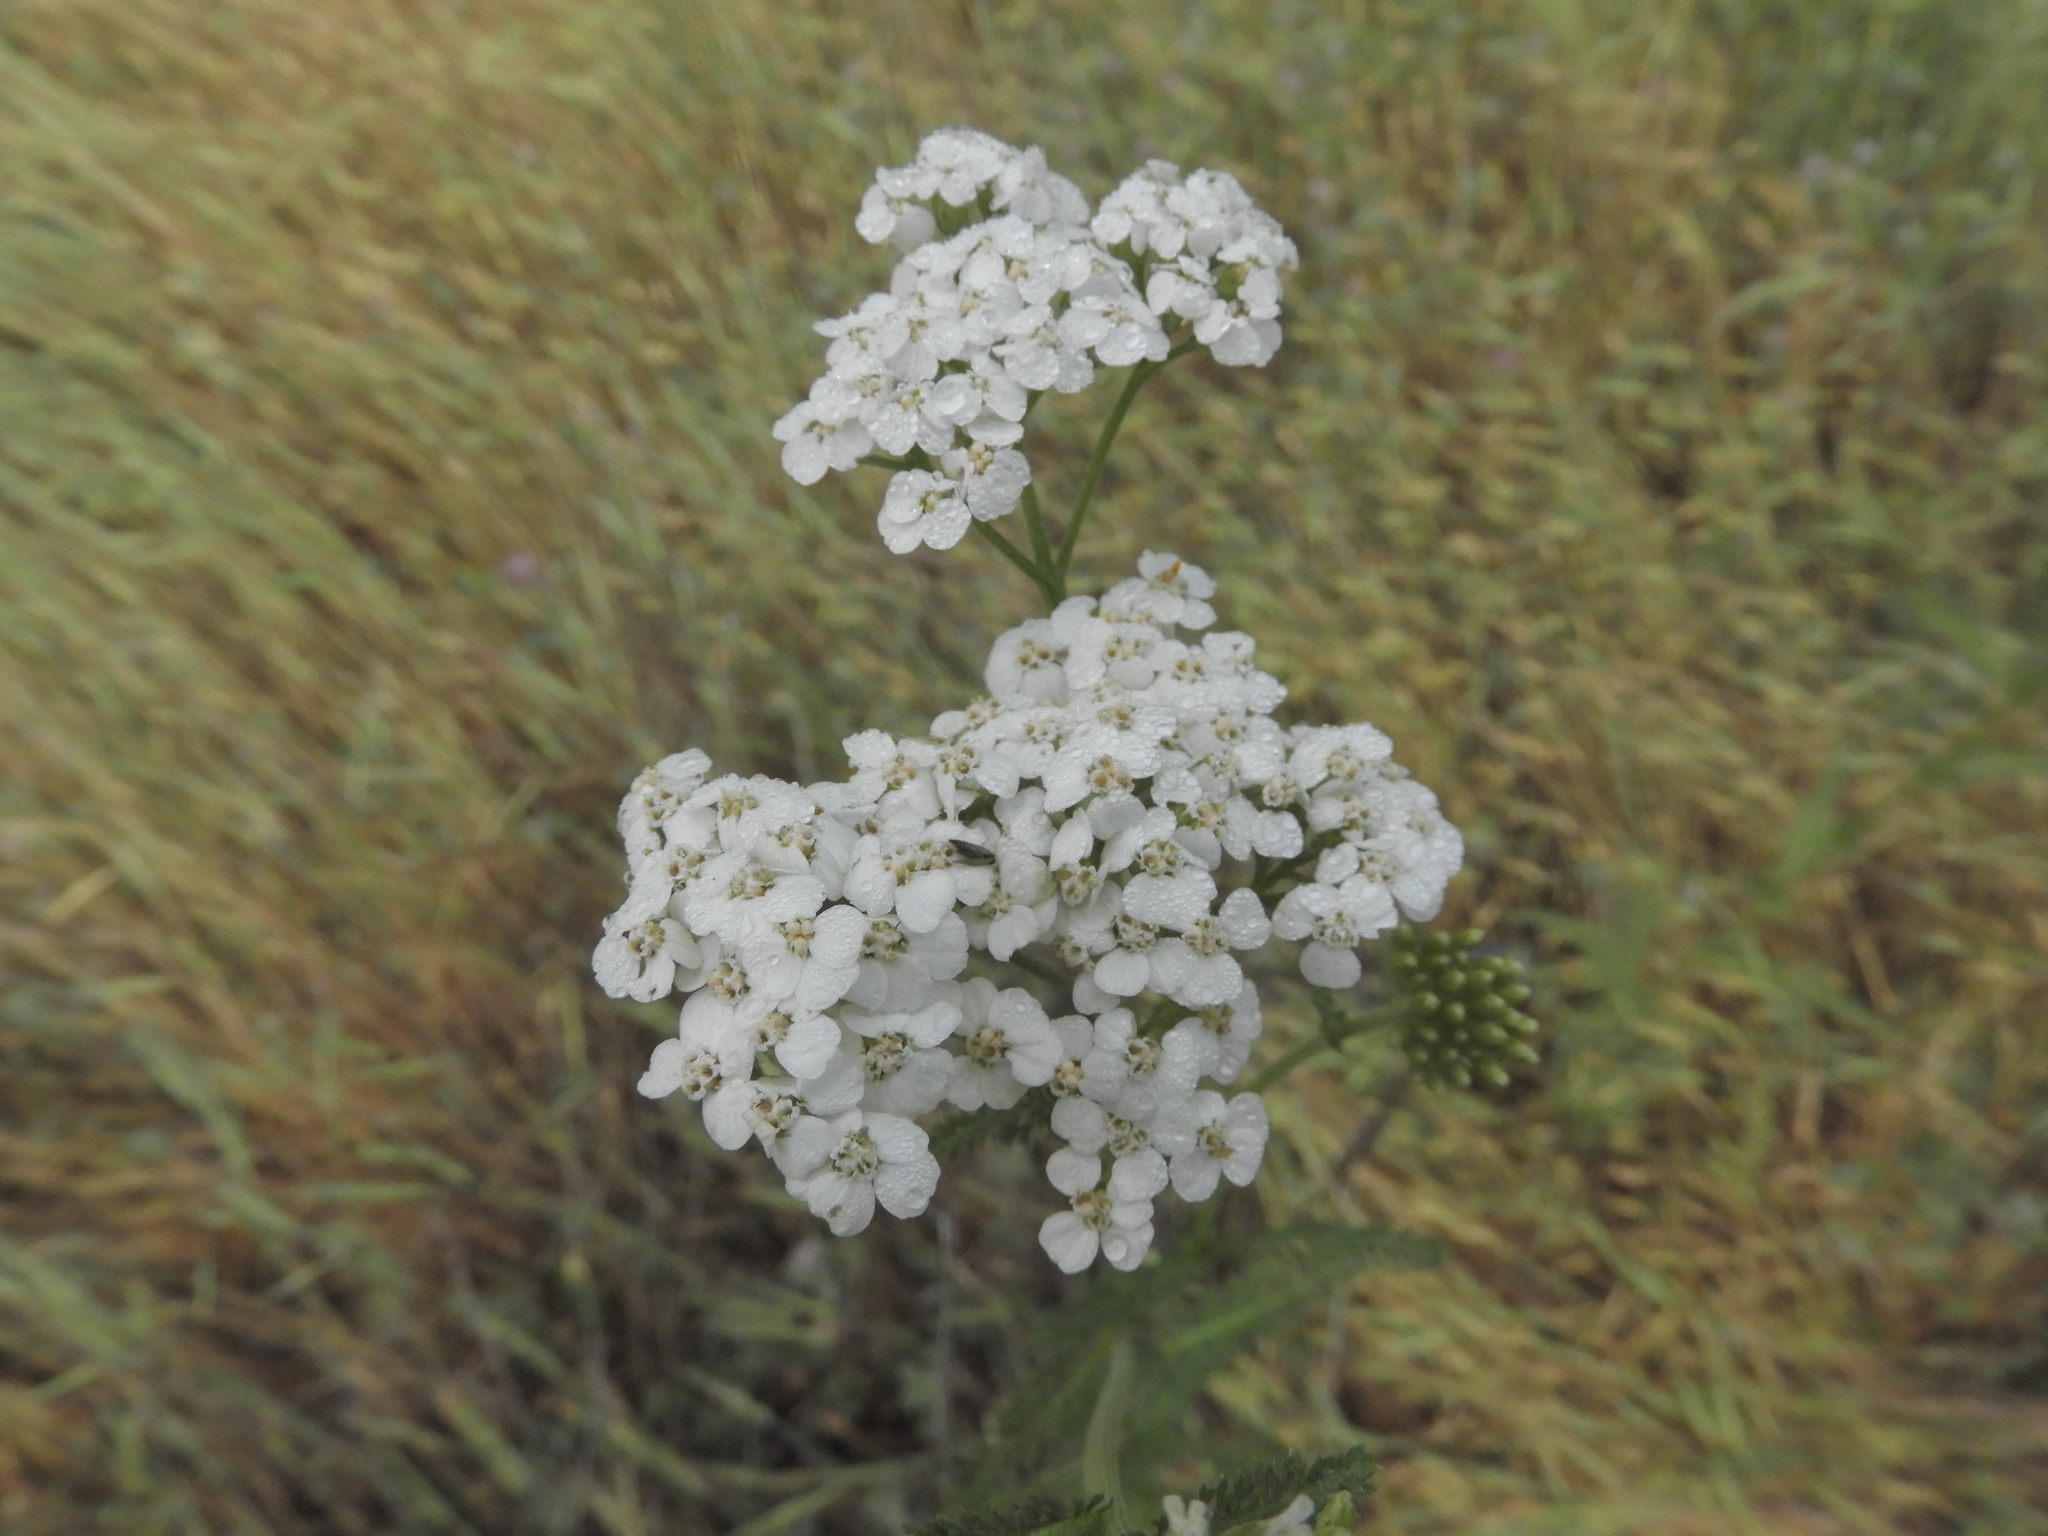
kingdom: Plantae
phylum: Tracheophyta
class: Magnoliopsida
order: Asterales
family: Asteraceae
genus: Achillea
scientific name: Achillea millefolium
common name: Yarrow
